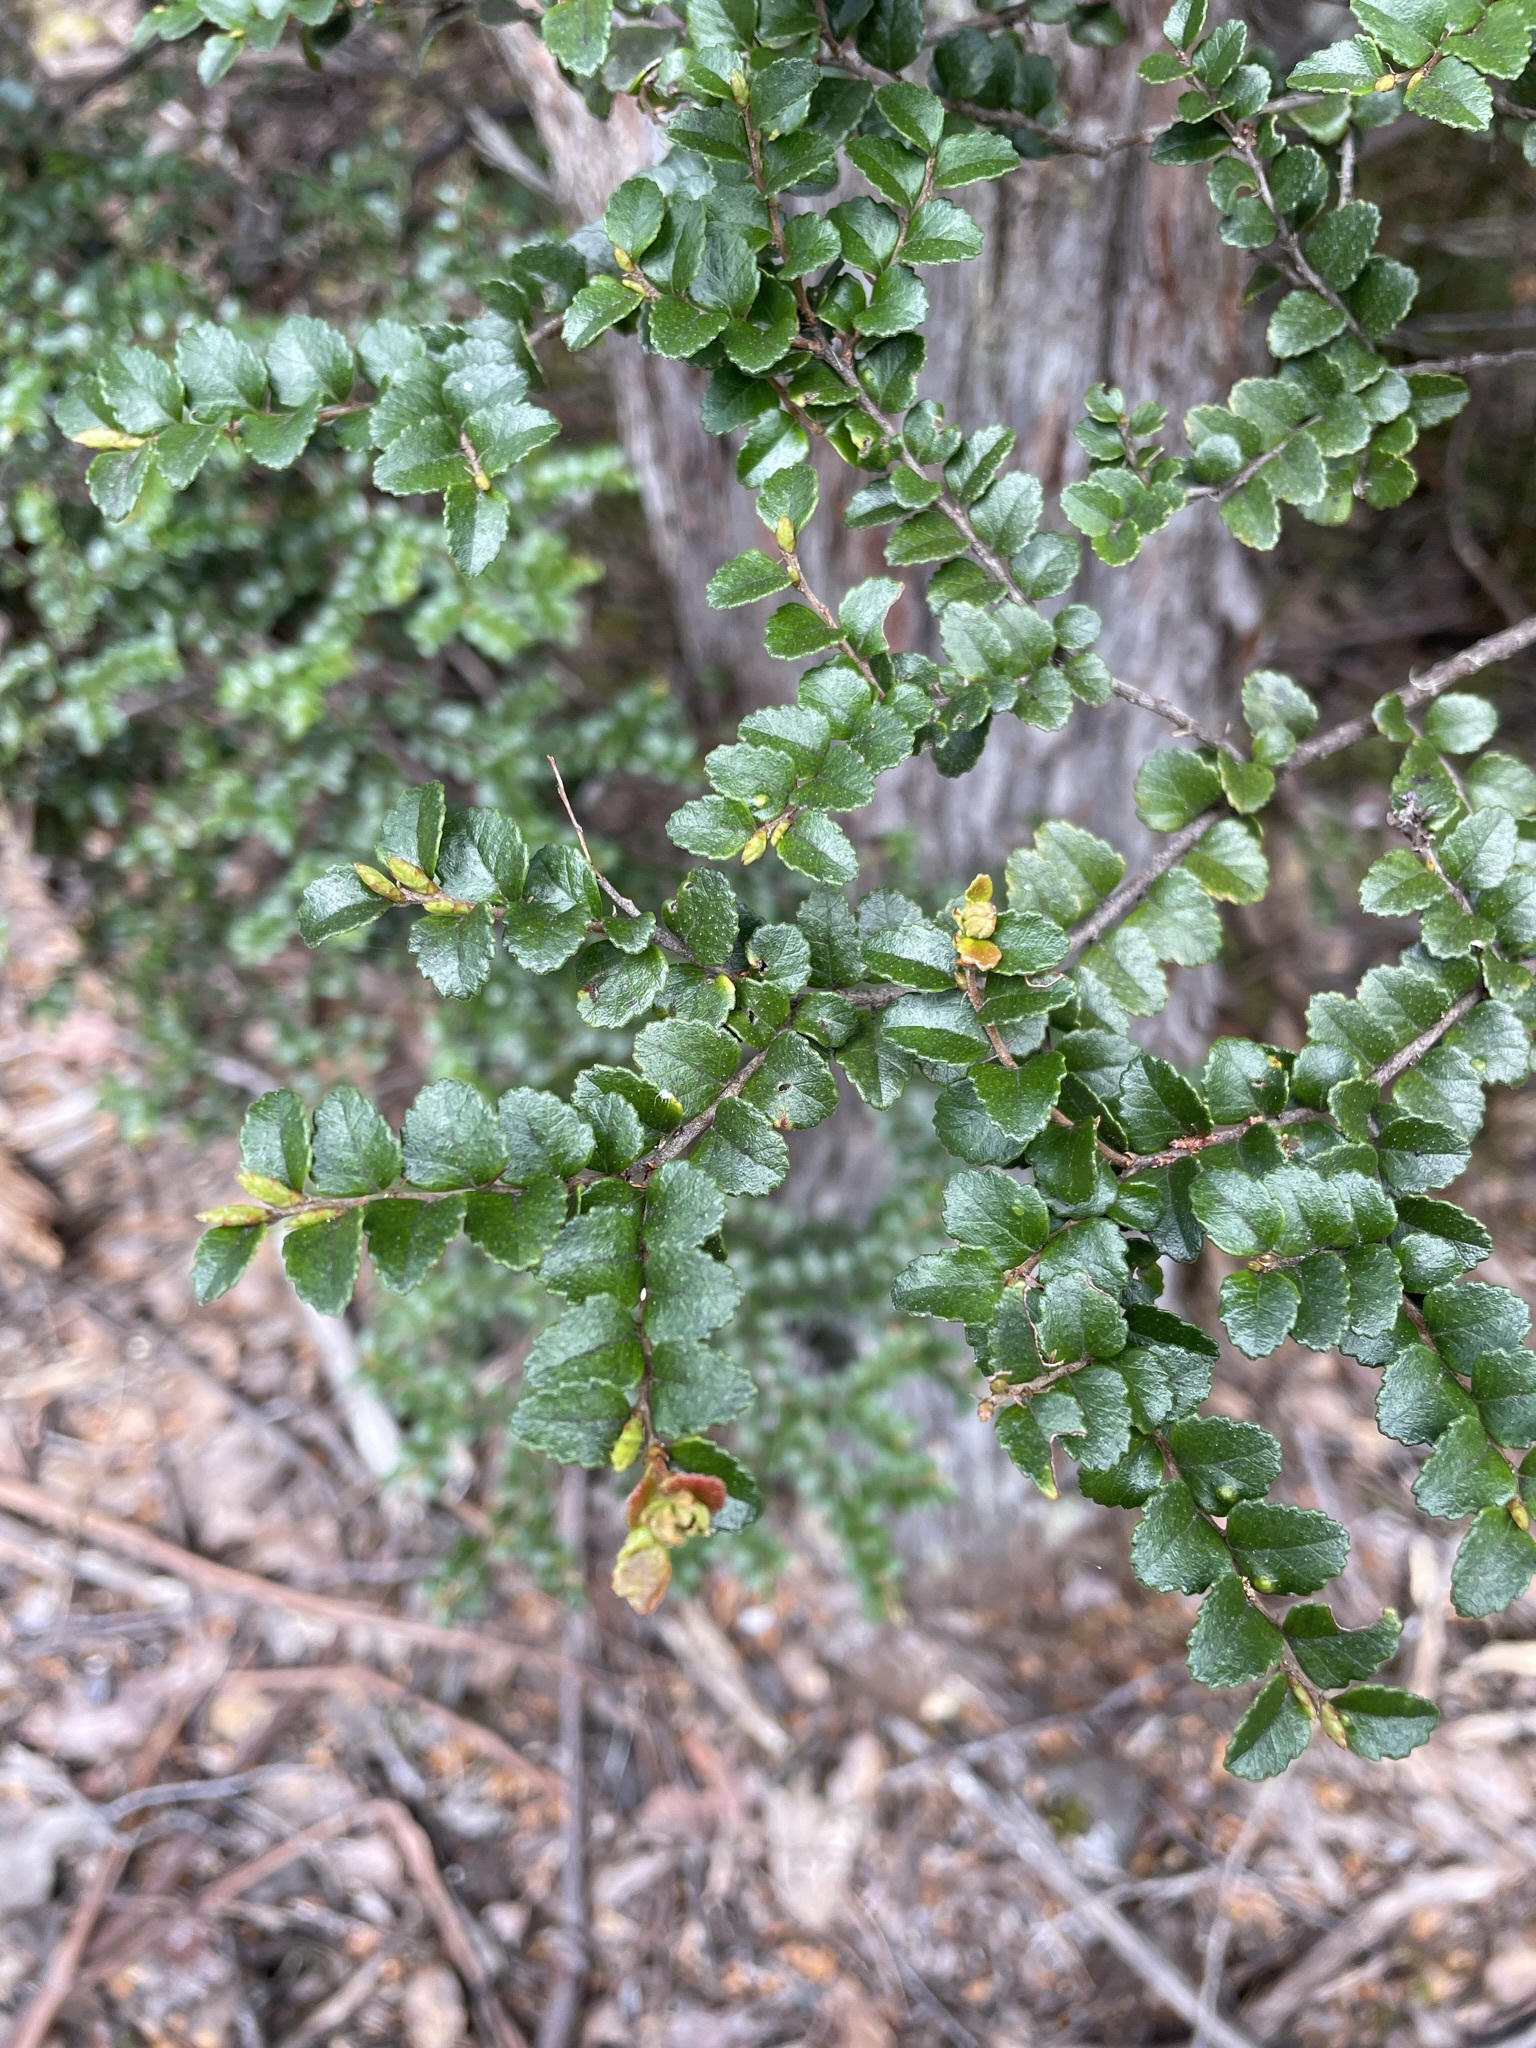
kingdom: Plantae
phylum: Tracheophyta
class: Magnoliopsida
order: Fagales
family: Nothofagaceae
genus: Nothofagus
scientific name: Nothofagus cunninghamii
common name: Myrtle beech
